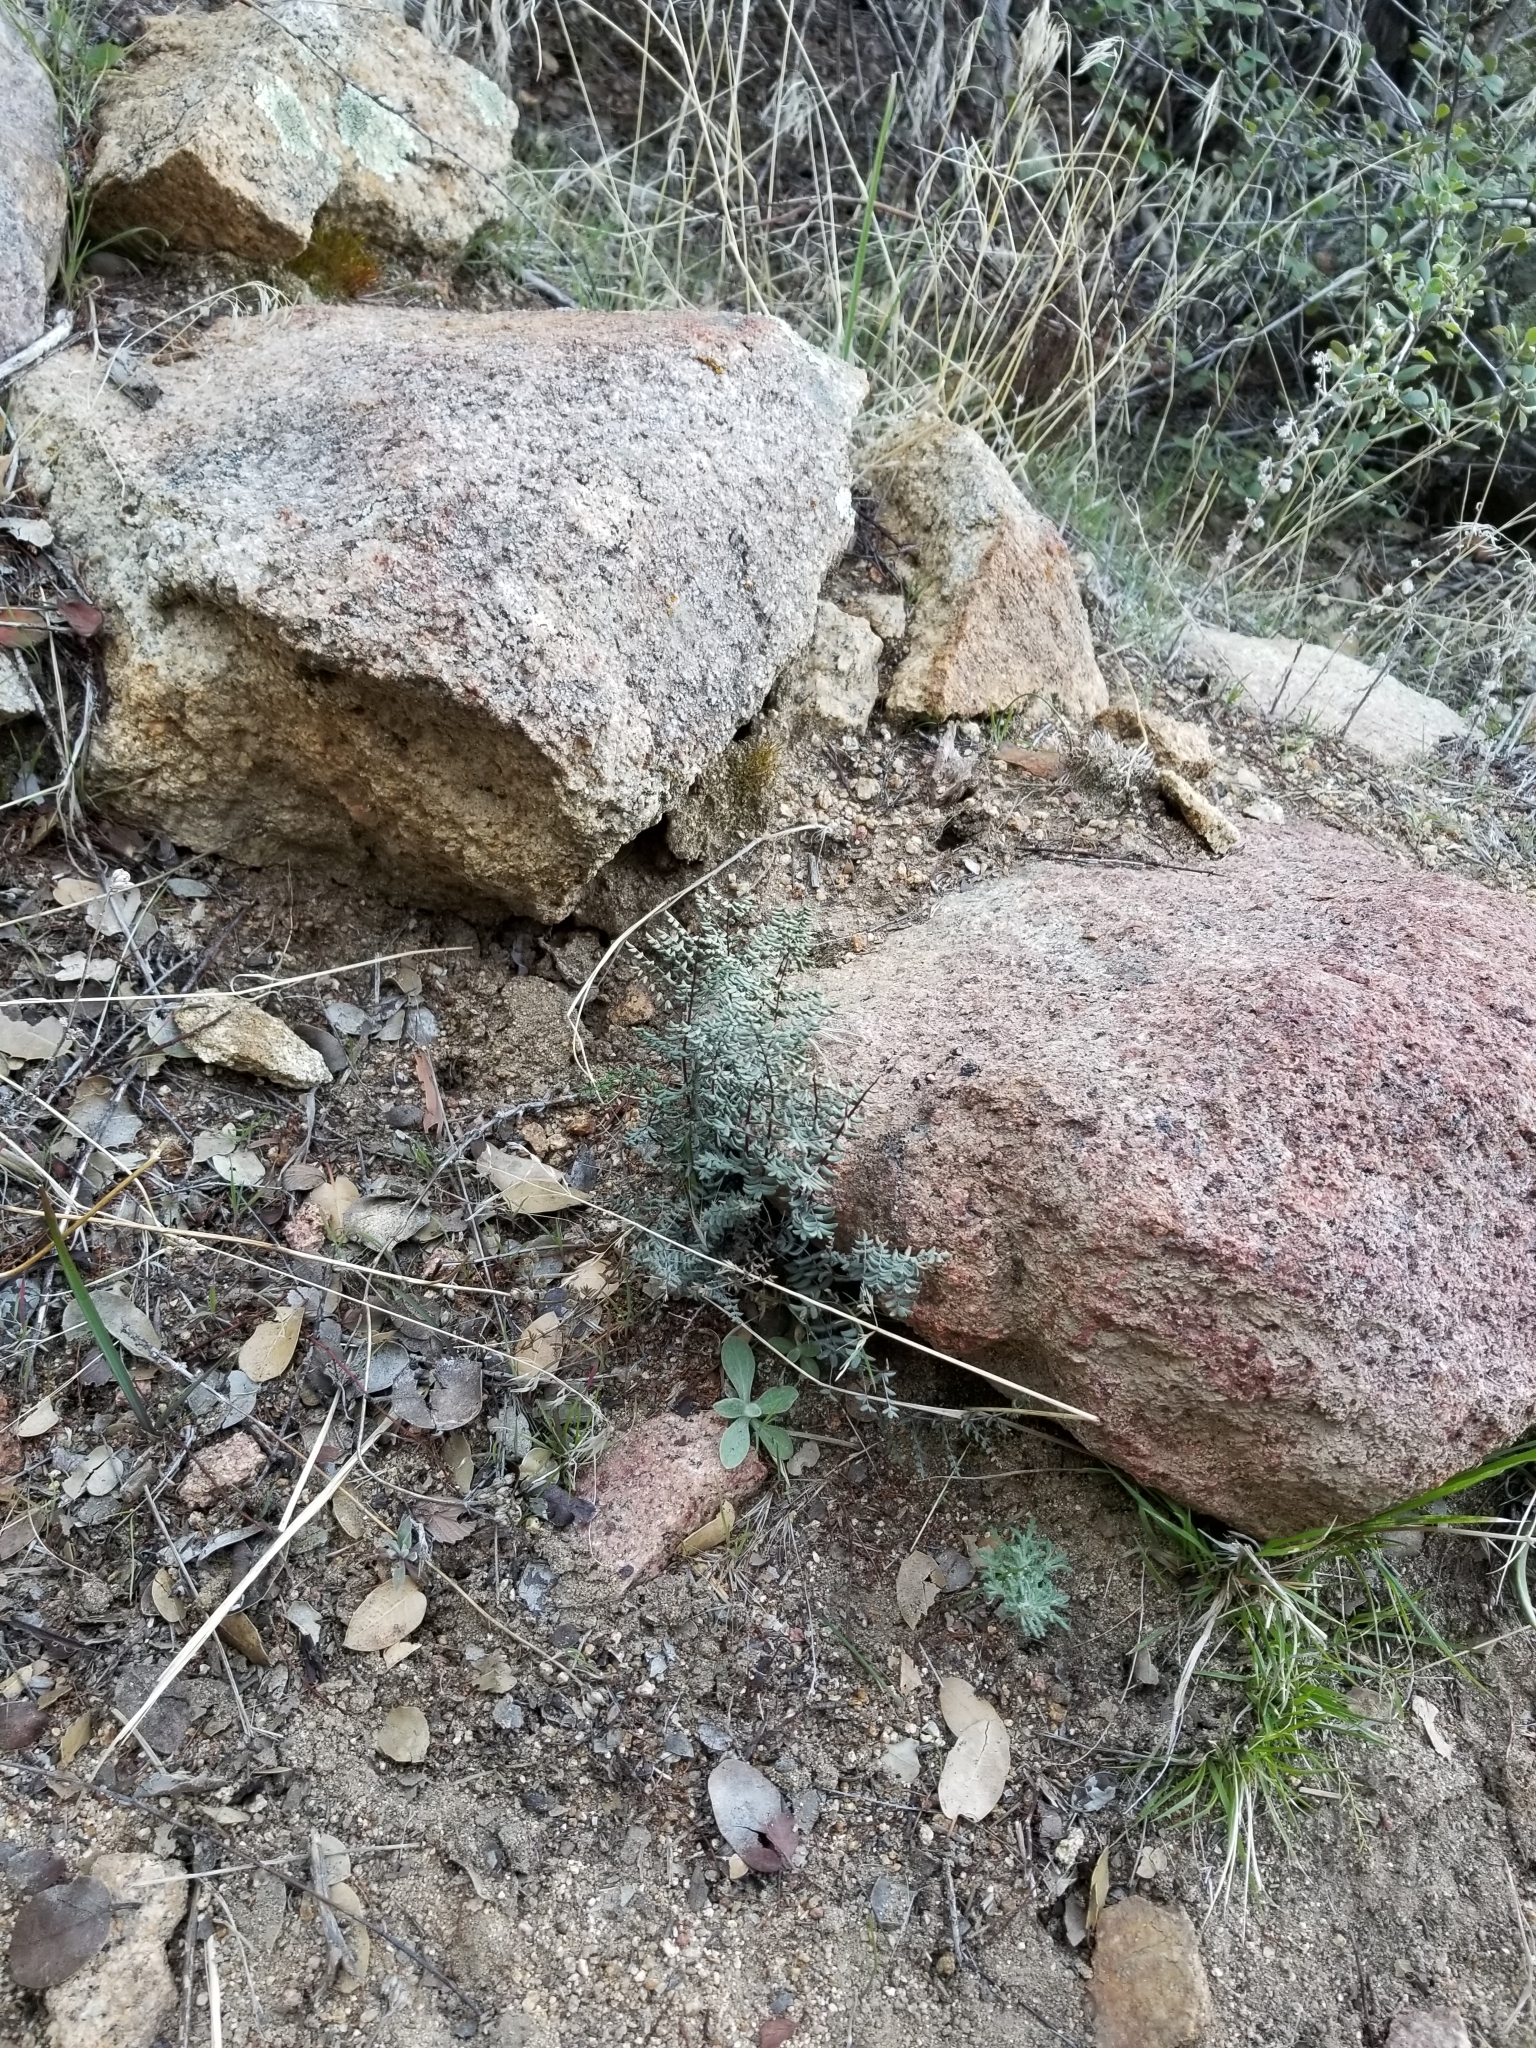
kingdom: Plantae
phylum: Tracheophyta
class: Polypodiopsida
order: Polypodiales
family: Pteridaceae
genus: Pellaea
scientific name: Pellaea mucronata
